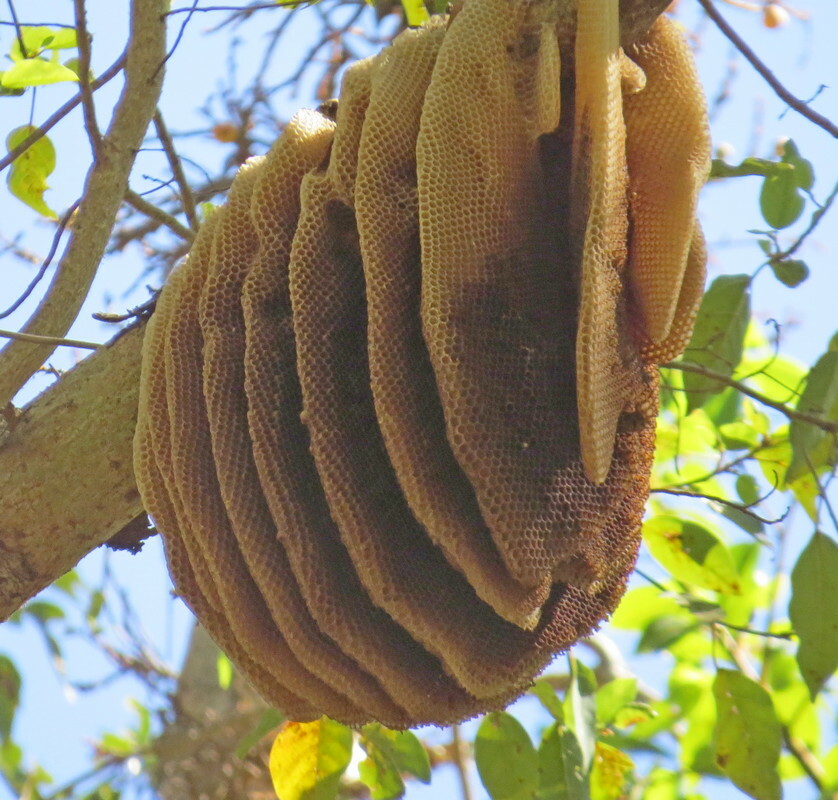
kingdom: Animalia
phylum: Arthropoda
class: Insecta
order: Hymenoptera
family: Apidae
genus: Apis
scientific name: Apis mellifera
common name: Honey bee
